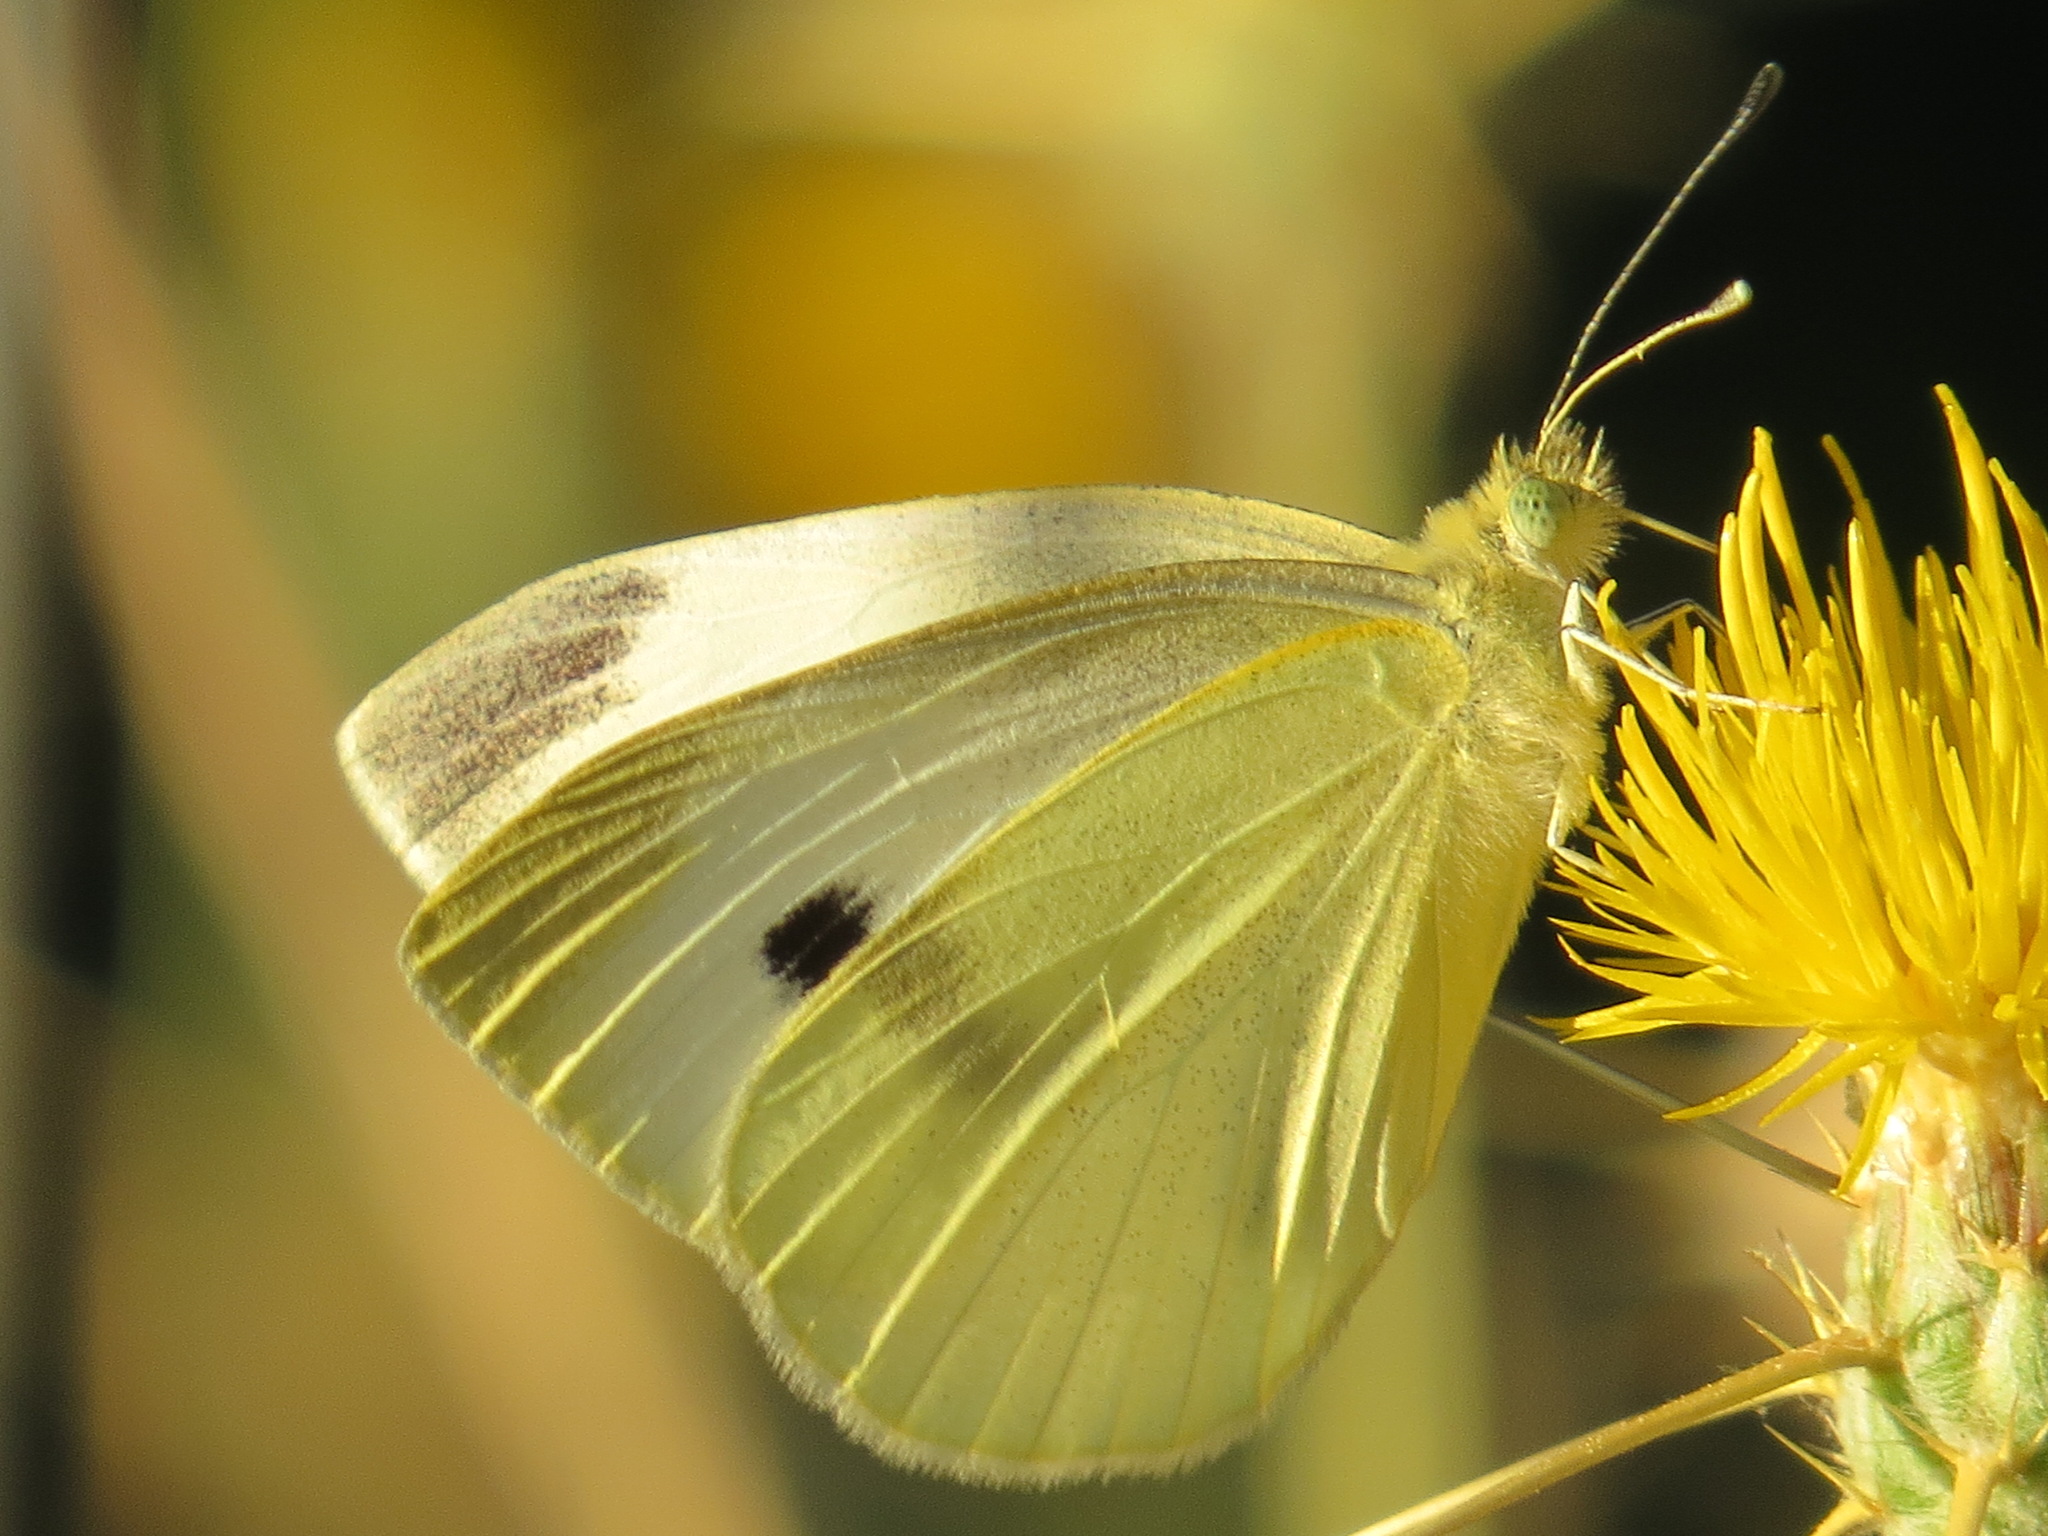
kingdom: Animalia
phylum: Arthropoda
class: Insecta
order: Lepidoptera
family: Pieridae
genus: Pieris
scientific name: Pieris rapae
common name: Small white
